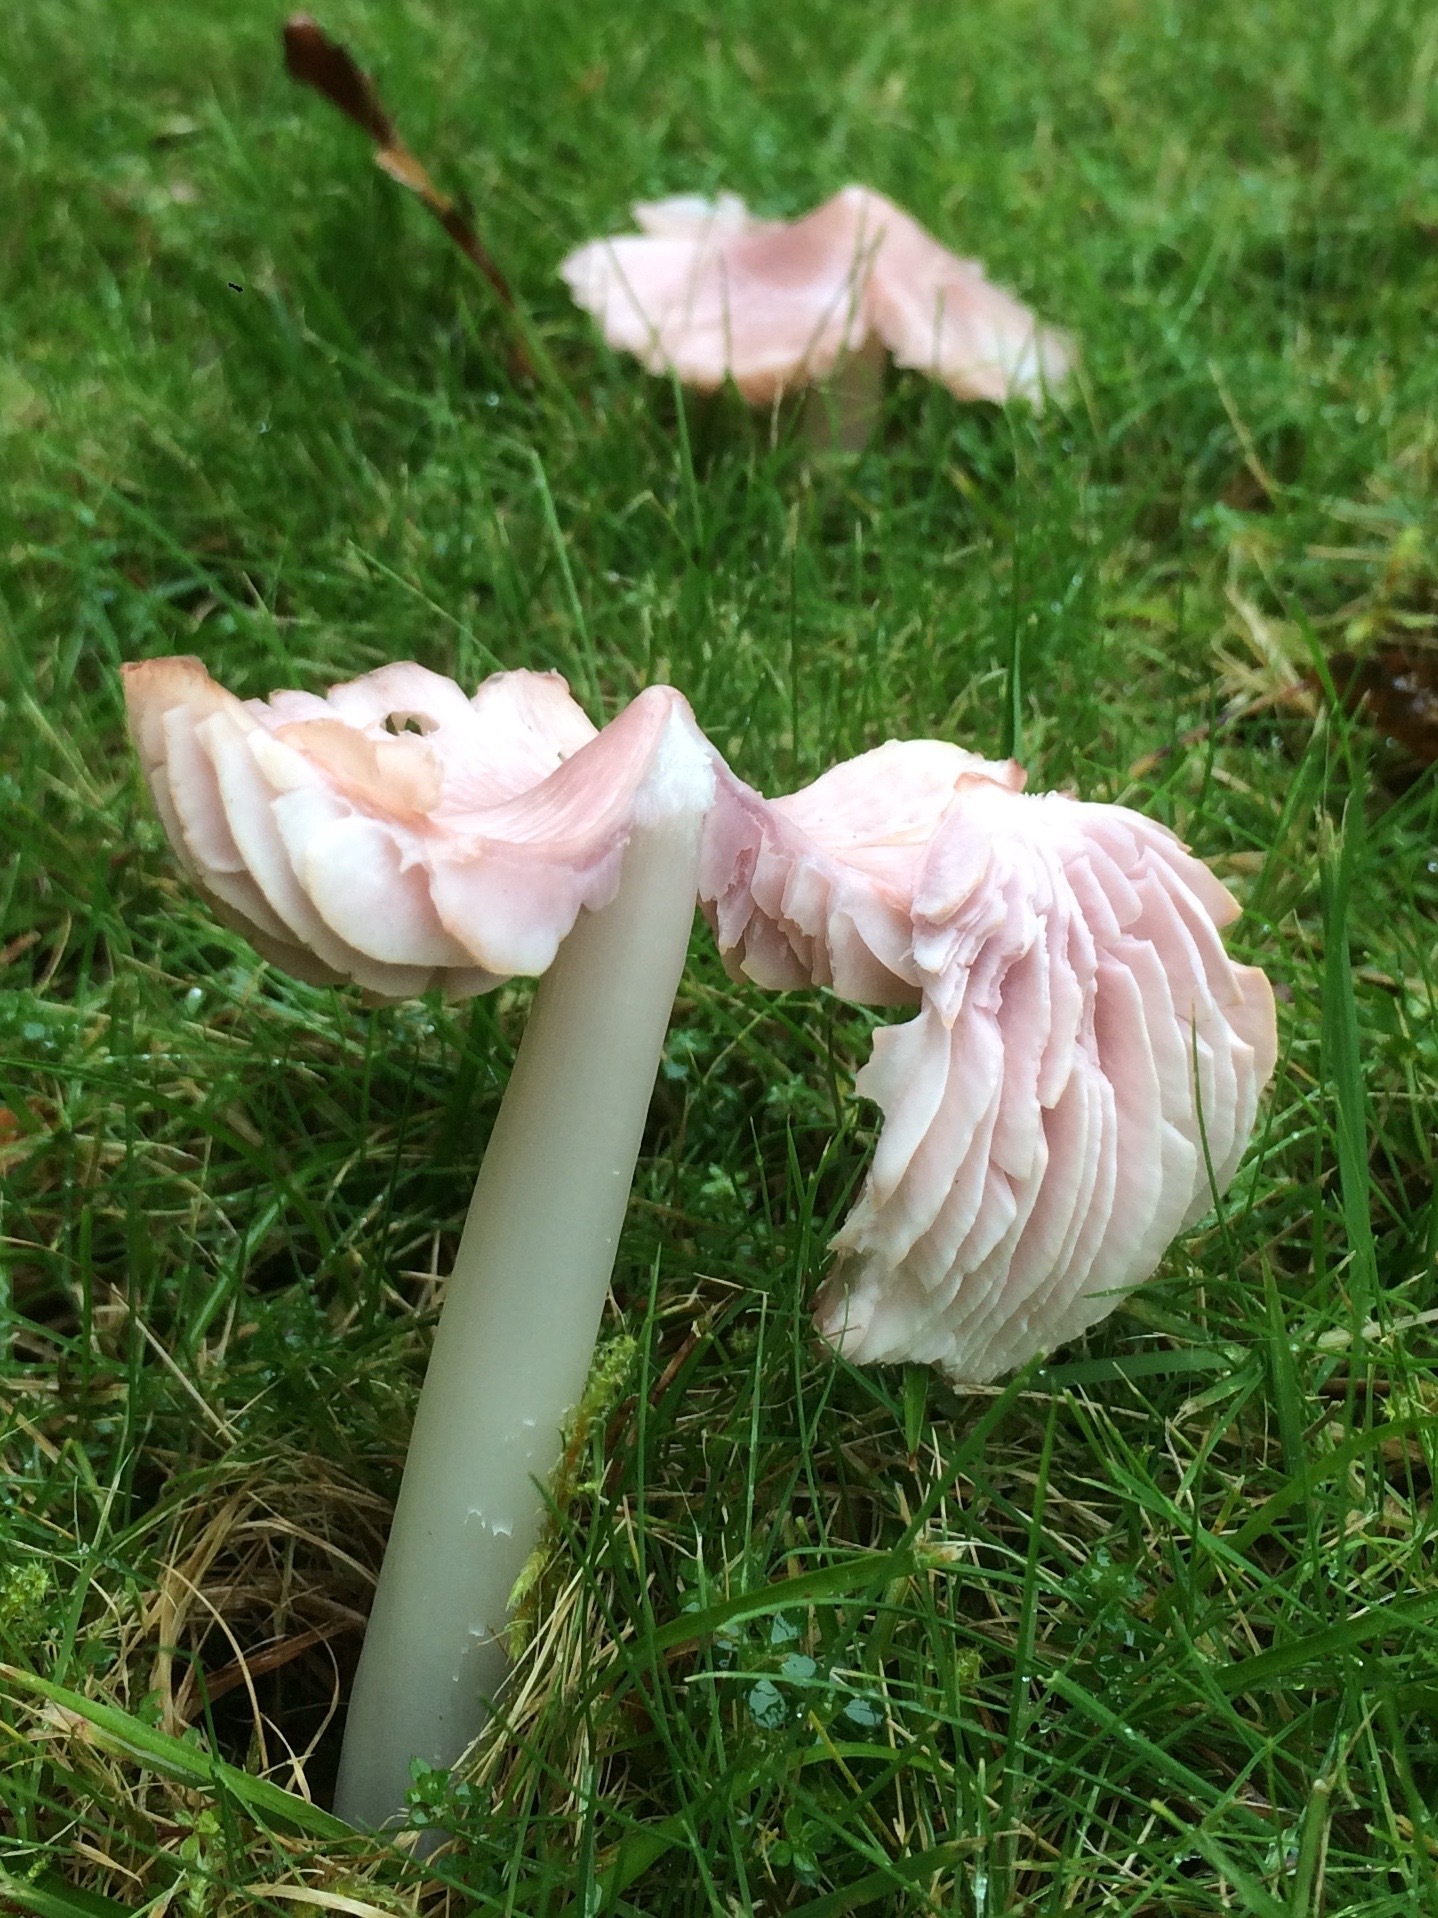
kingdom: Fungi
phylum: Basidiomycota
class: Agaricomycetes
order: Agaricales
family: Hygrophoraceae
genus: Porpolomopsis
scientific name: Porpolomopsis calyptriformis
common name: Pink waxcap
